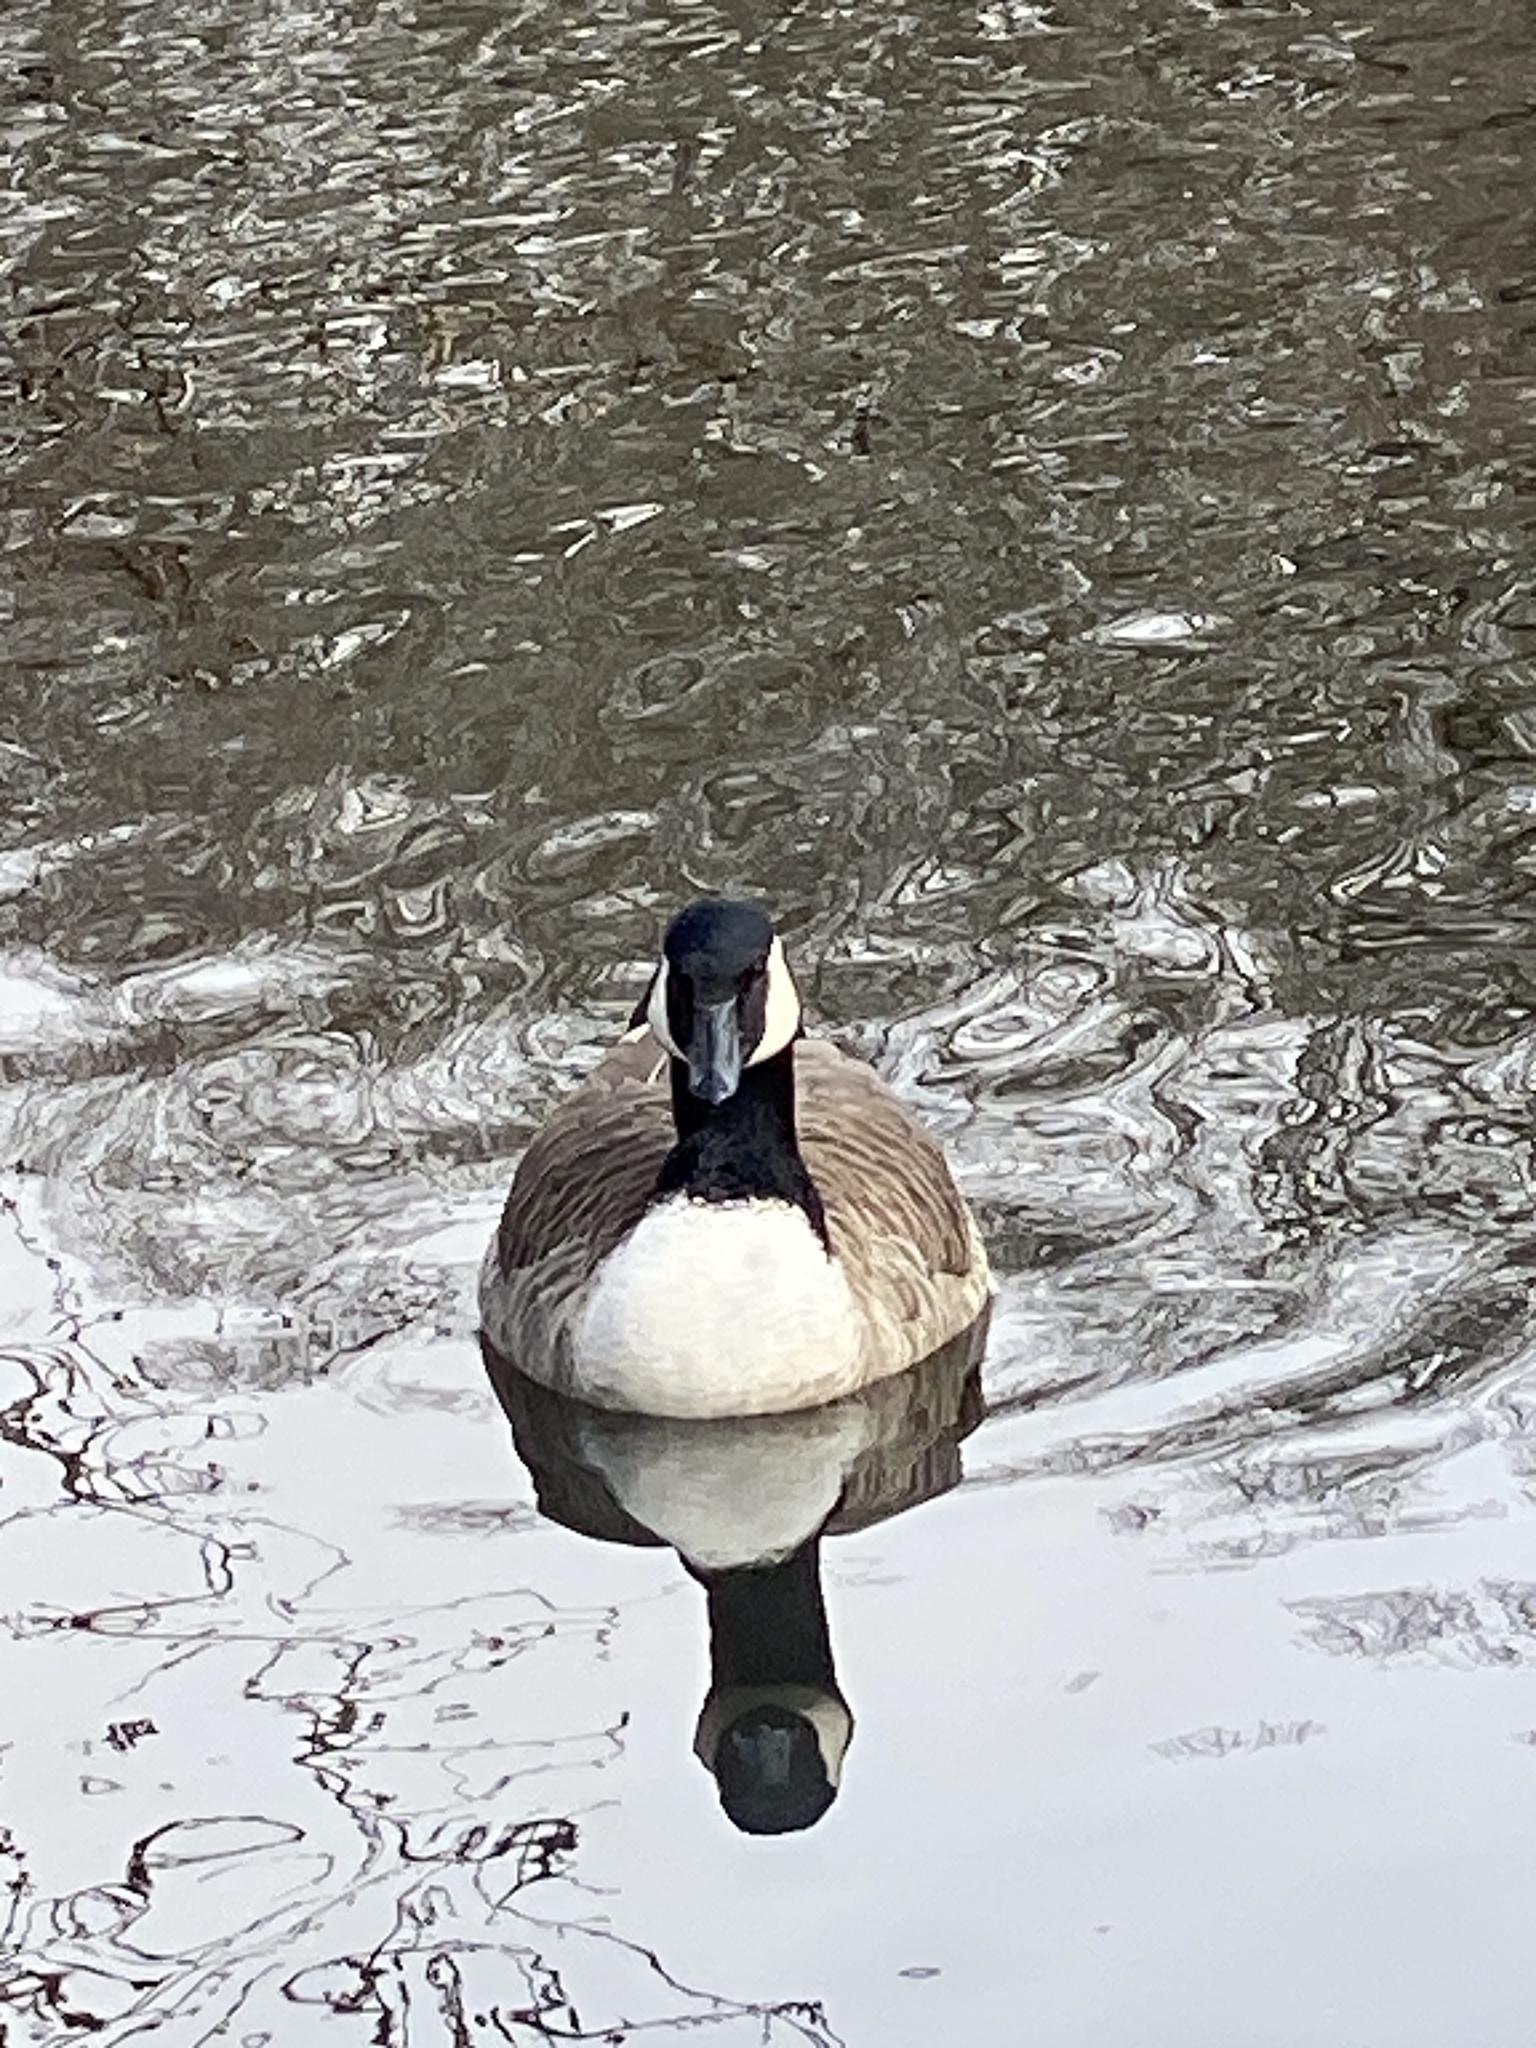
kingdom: Animalia
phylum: Chordata
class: Aves
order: Anseriformes
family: Anatidae
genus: Branta
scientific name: Branta canadensis
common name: Canada goose
